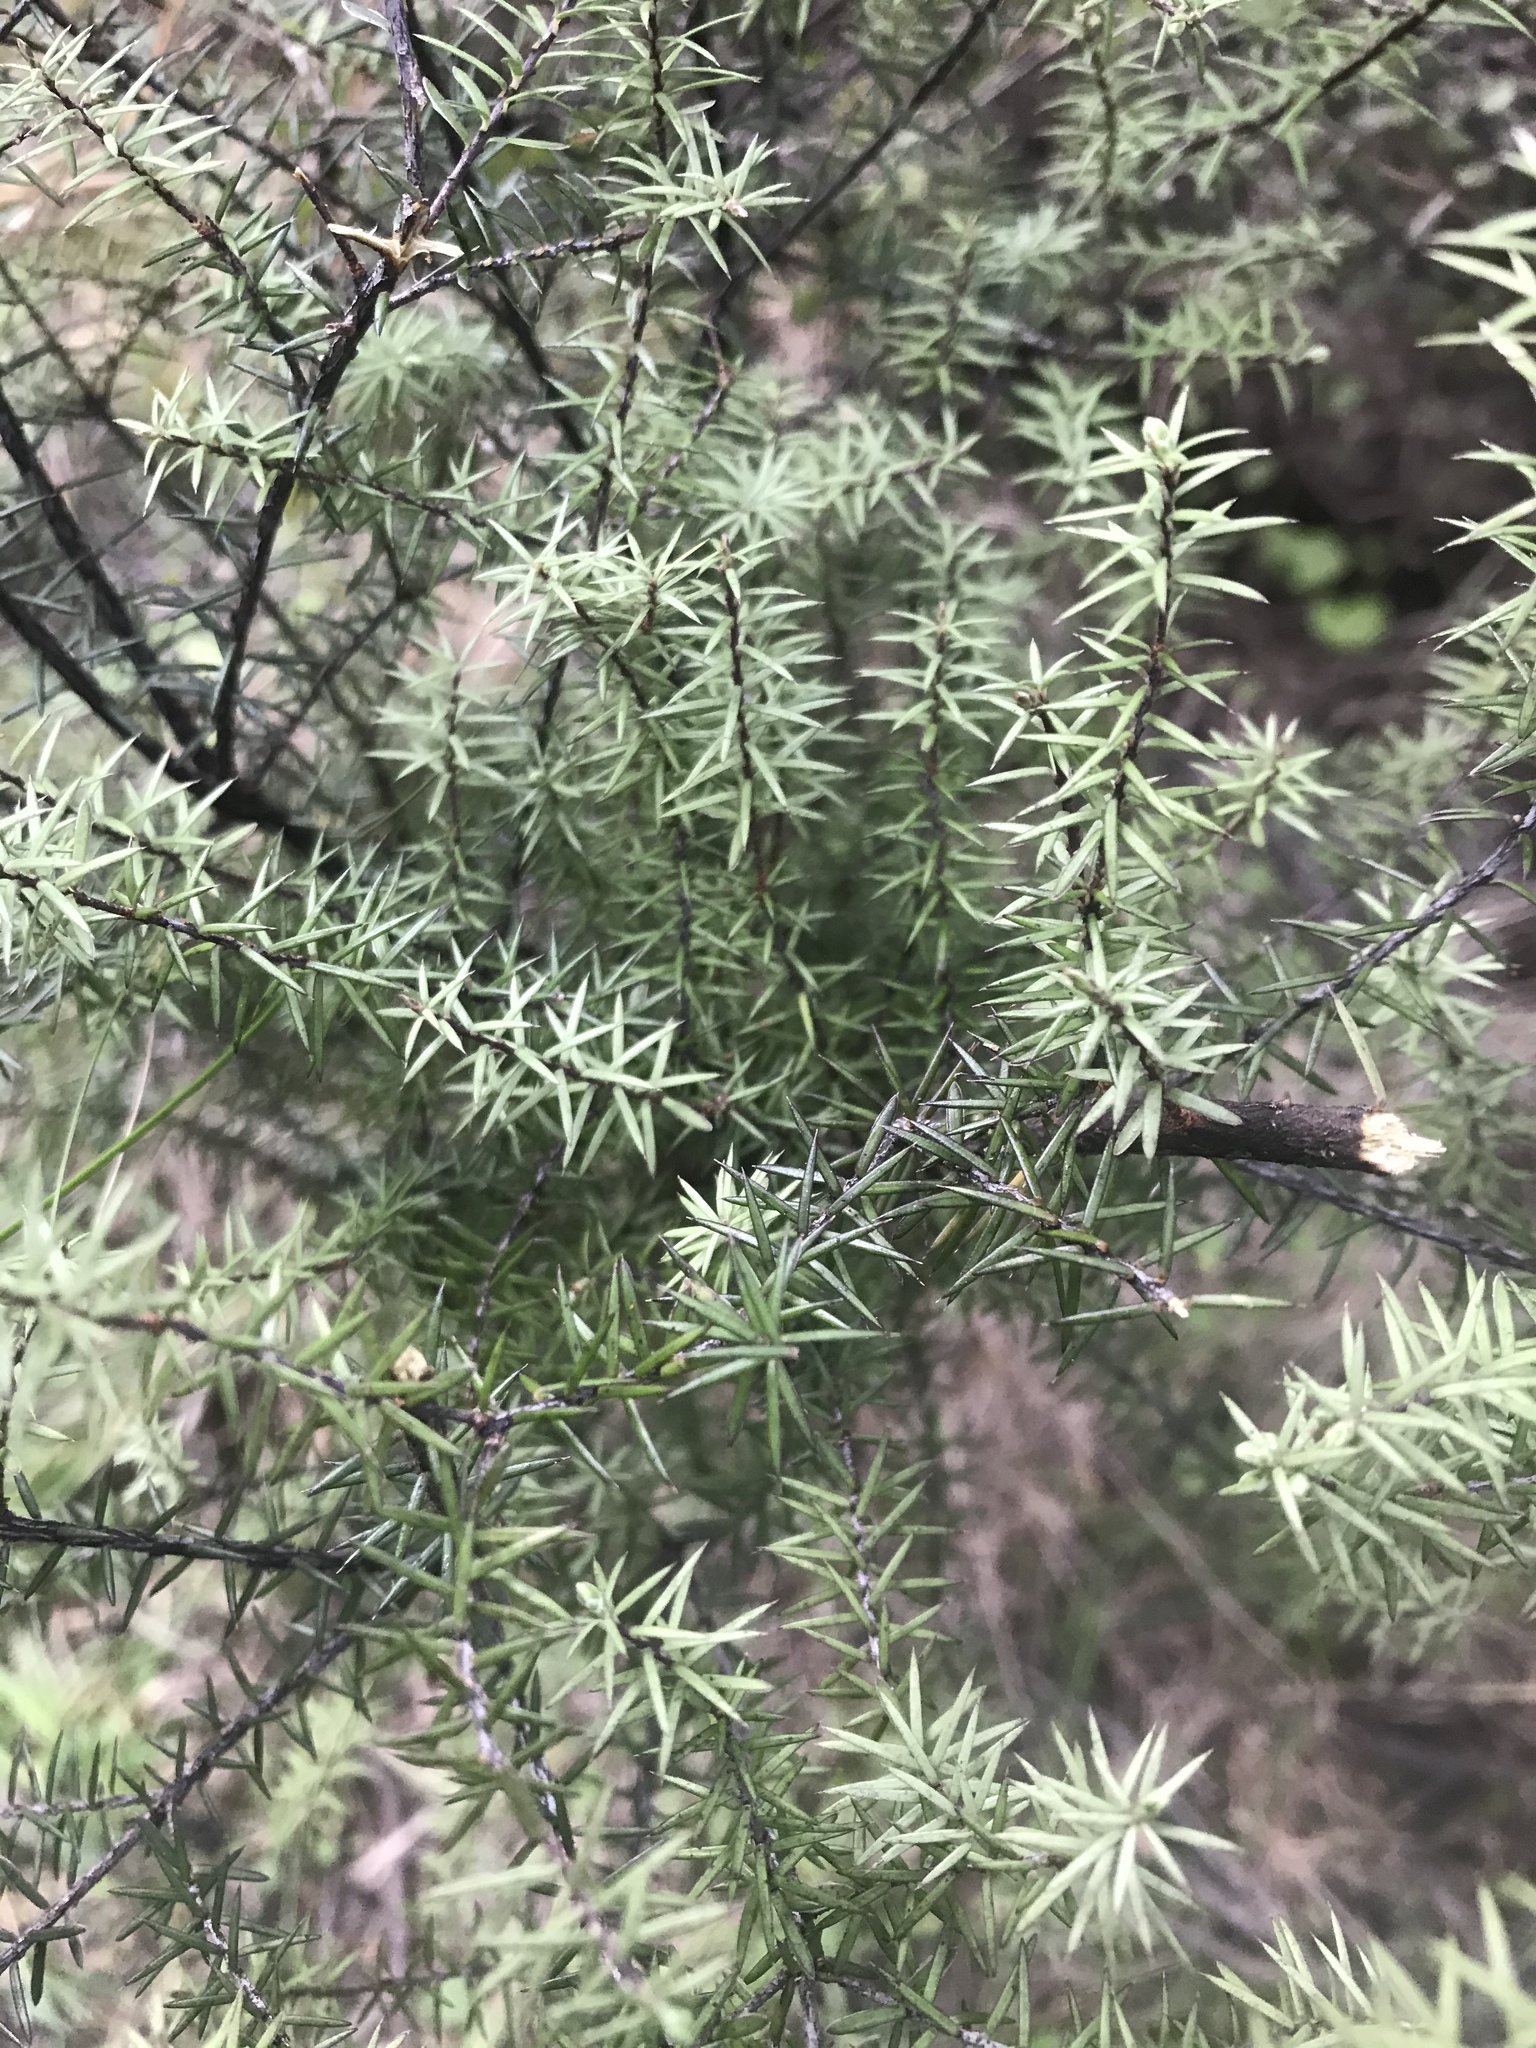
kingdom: Plantae
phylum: Tracheophyta
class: Magnoliopsida
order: Ericales
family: Ericaceae
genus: Leptecophylla
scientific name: Leptecophylla juniperina
